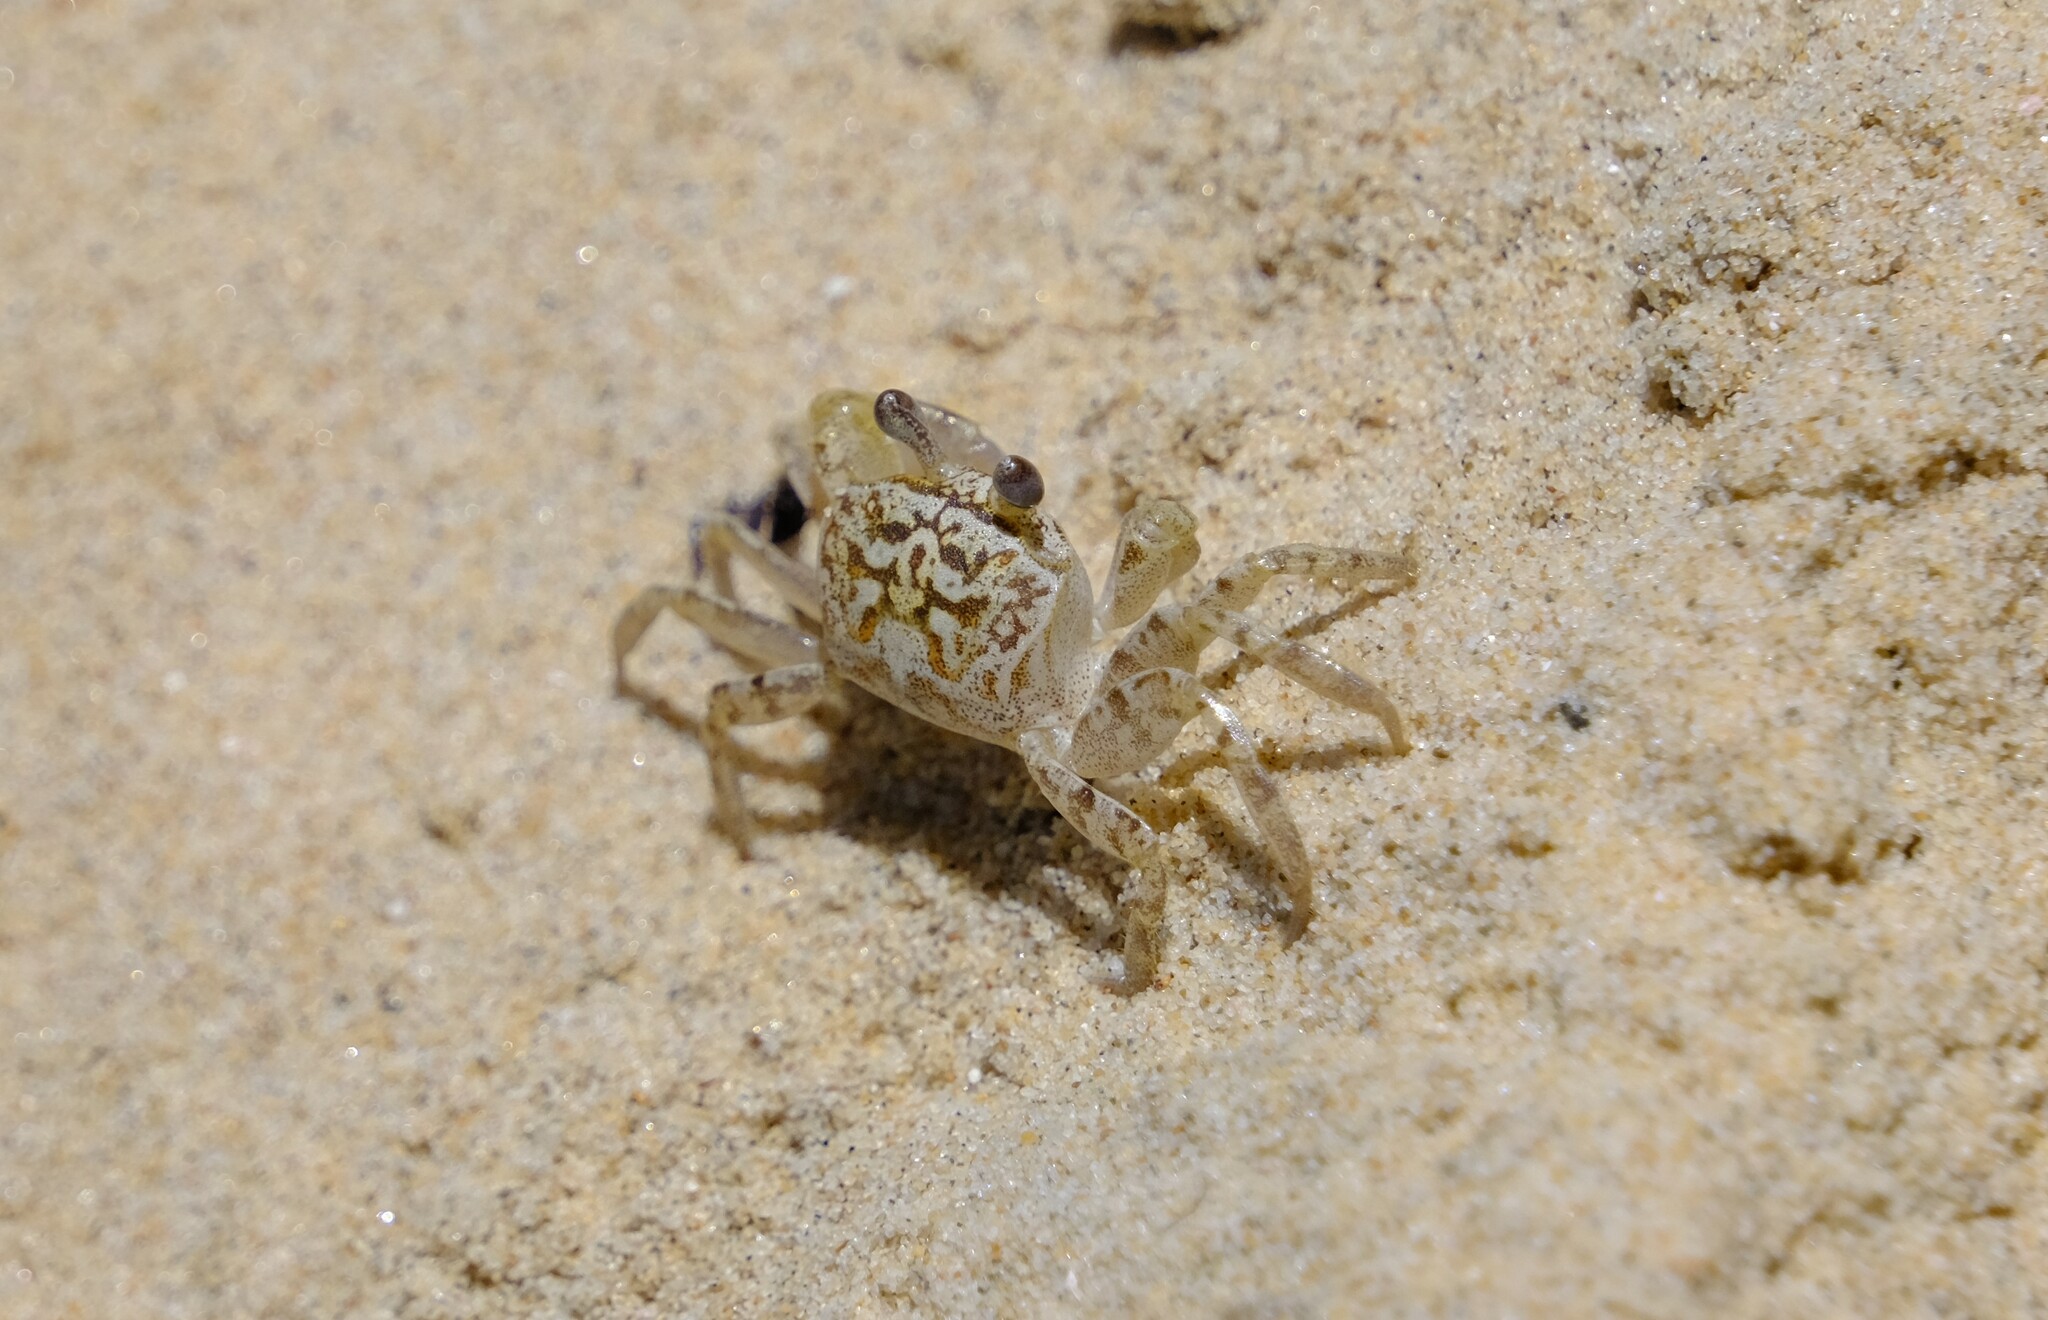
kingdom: Animalia
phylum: Arthropoda
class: Malacostraca
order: Decapoda
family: Ocypodidae
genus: Ocypode
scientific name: Ocypode cordimana
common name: Smooth-eyed ghost crab
